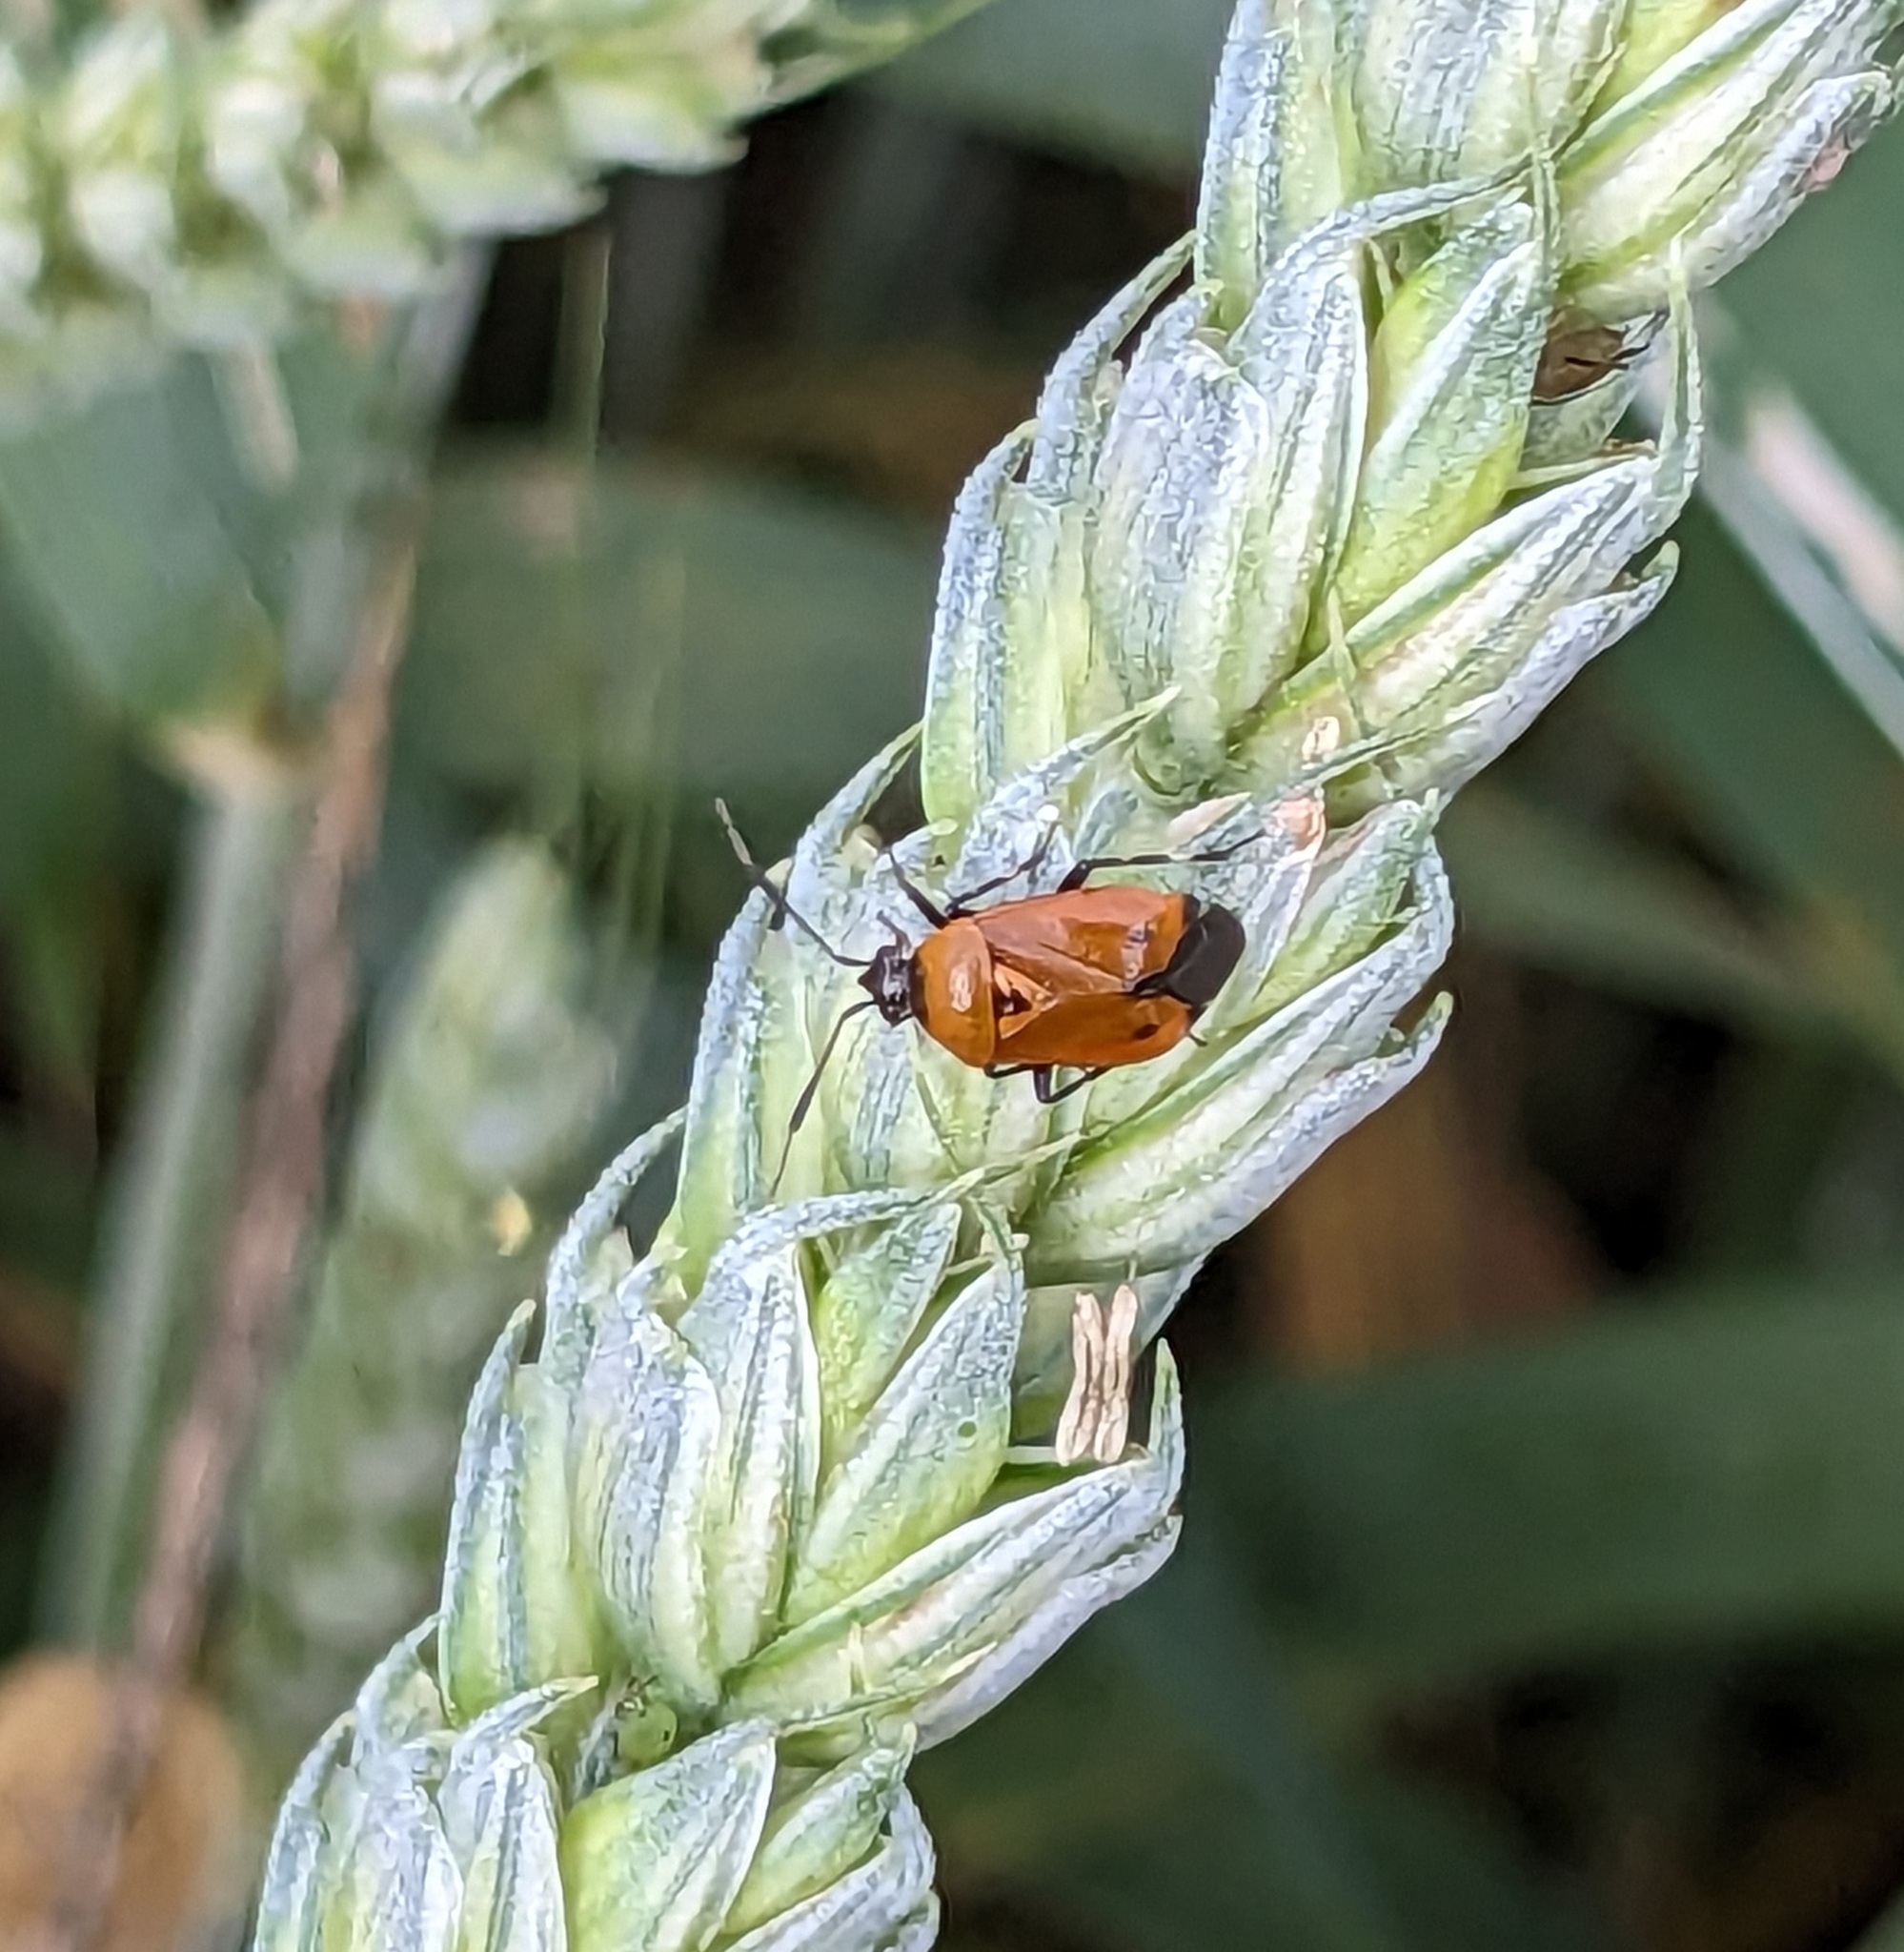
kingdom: Animalia
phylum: Arthropoda
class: Insecta
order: Hemiptera
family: Miridae
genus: Deraeocoris
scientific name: Deraeocoris punctum
